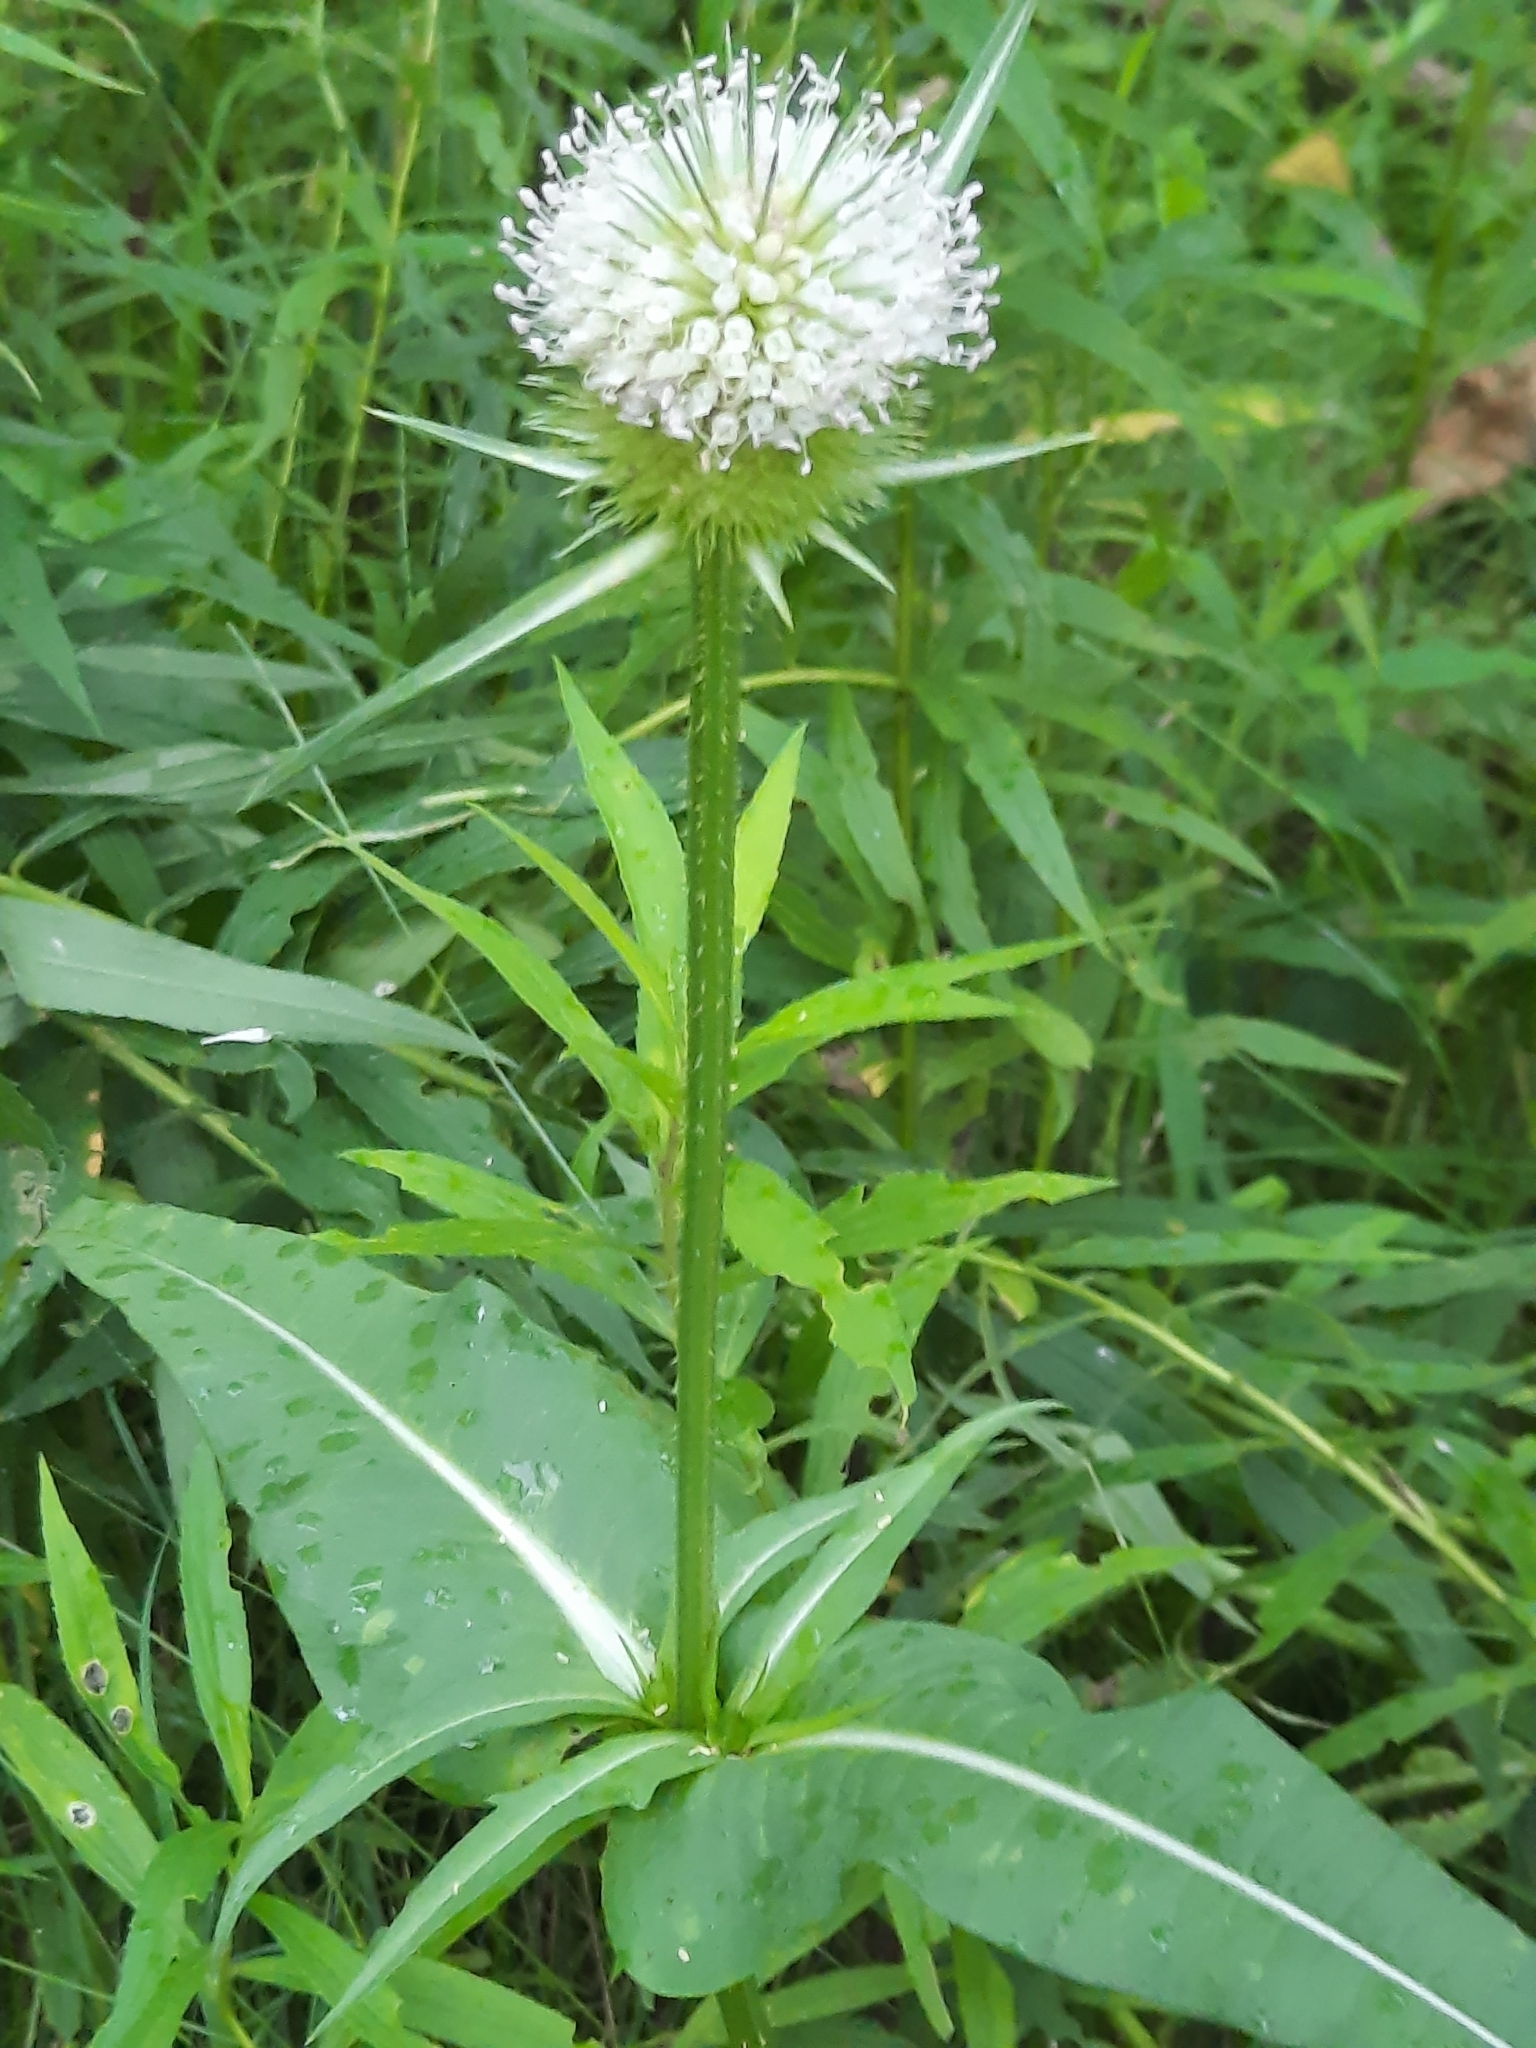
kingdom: Plantae
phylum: Tracheophyta
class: Magnoliopsida
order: Dipsacales
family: Caprifoliaceae
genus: Dipsacus
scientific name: Dipsacus laciniatus
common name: Cut-leaved teasel
